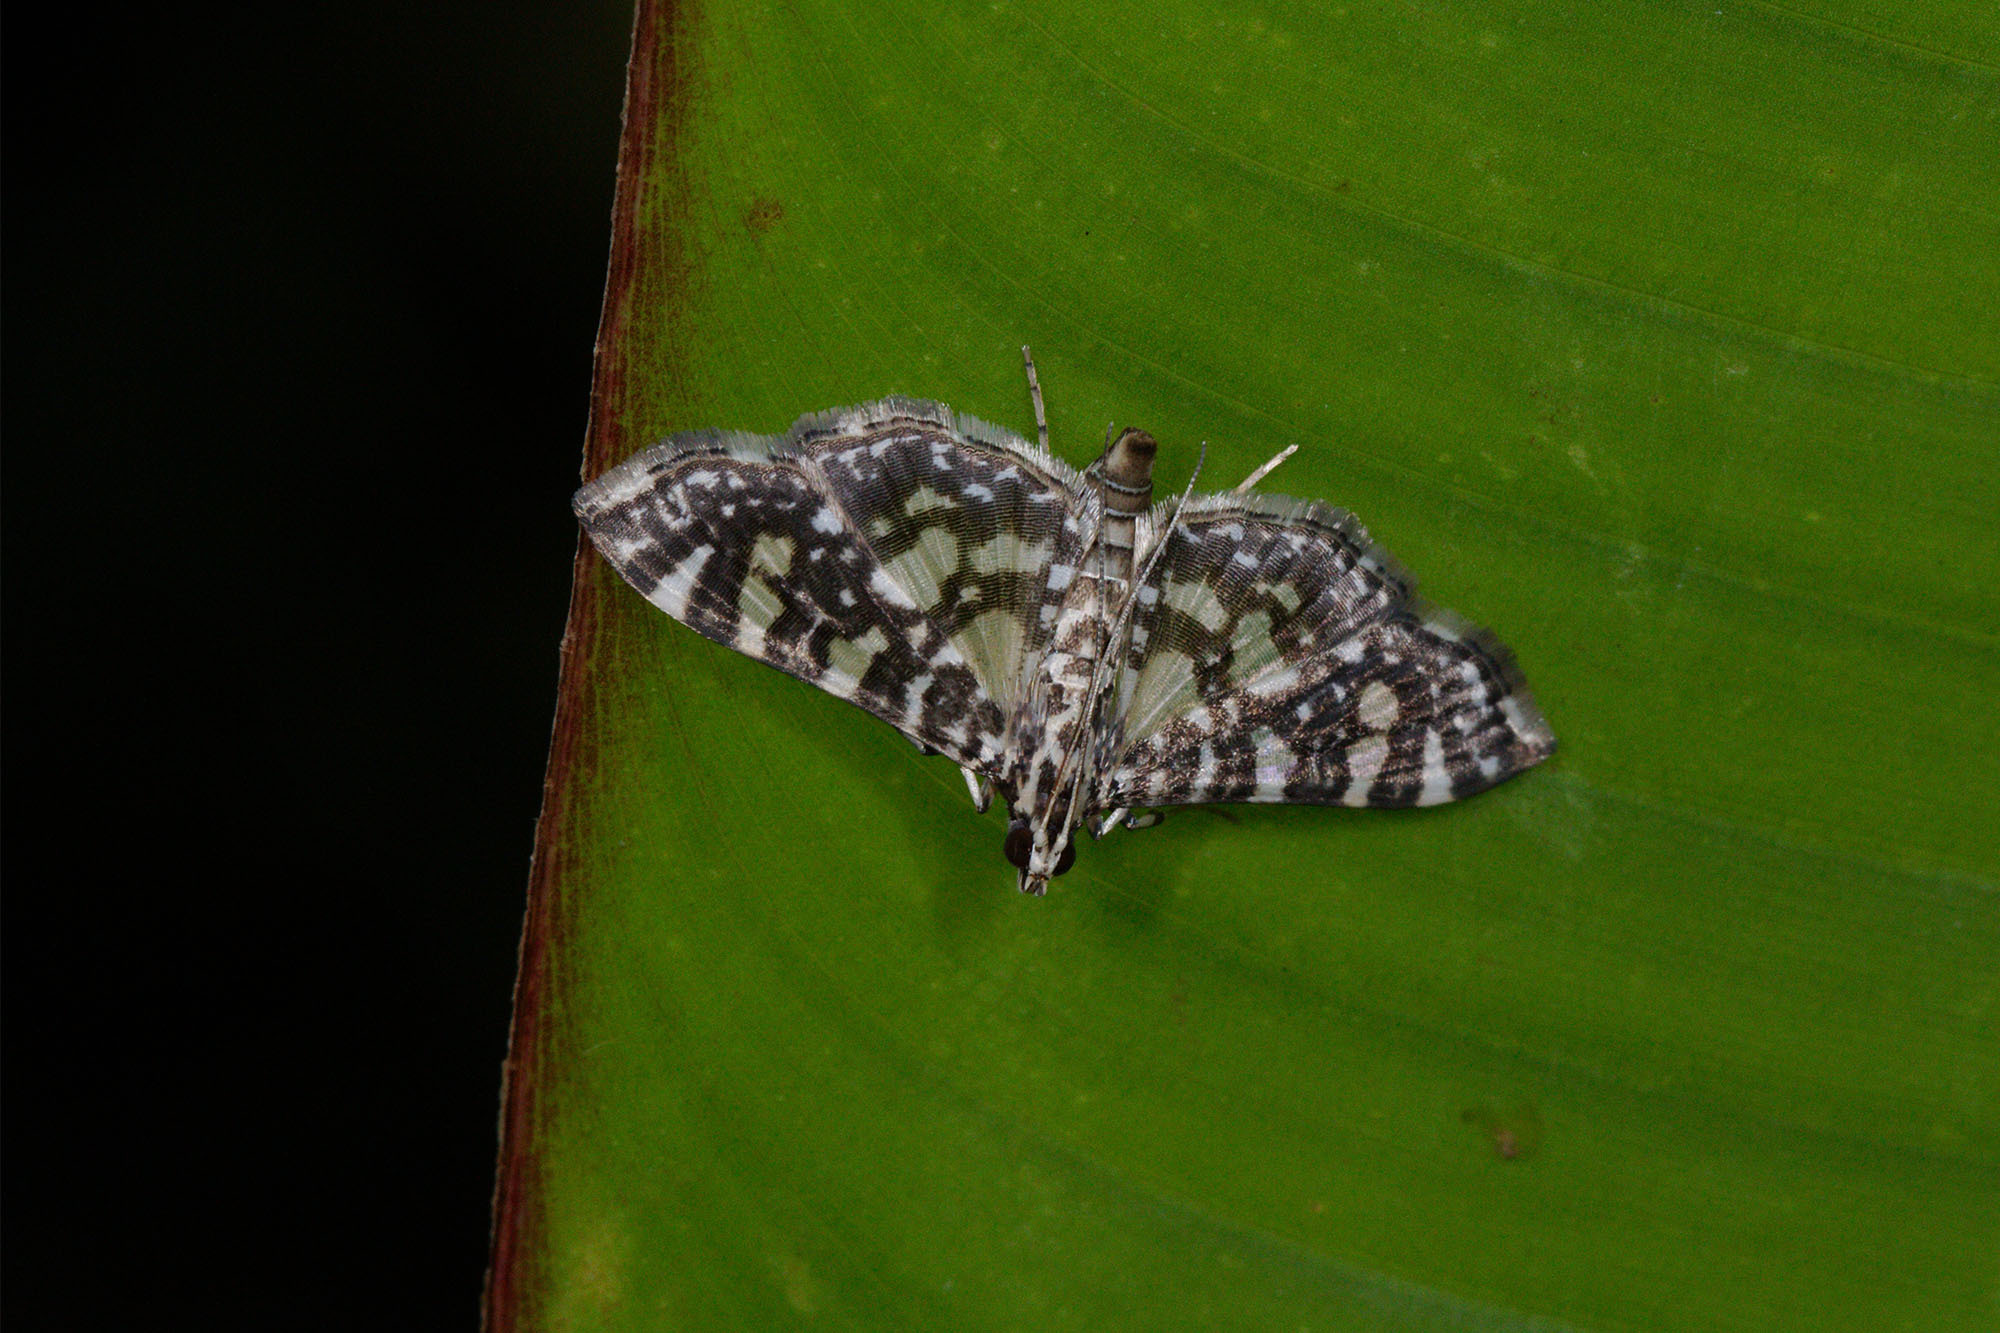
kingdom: Animalia
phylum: Arthropoda
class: Insecta
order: Lepidoptera
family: Crambidae
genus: Glyphodes
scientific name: Glyphodes onychinalis
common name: Swan plant moth
